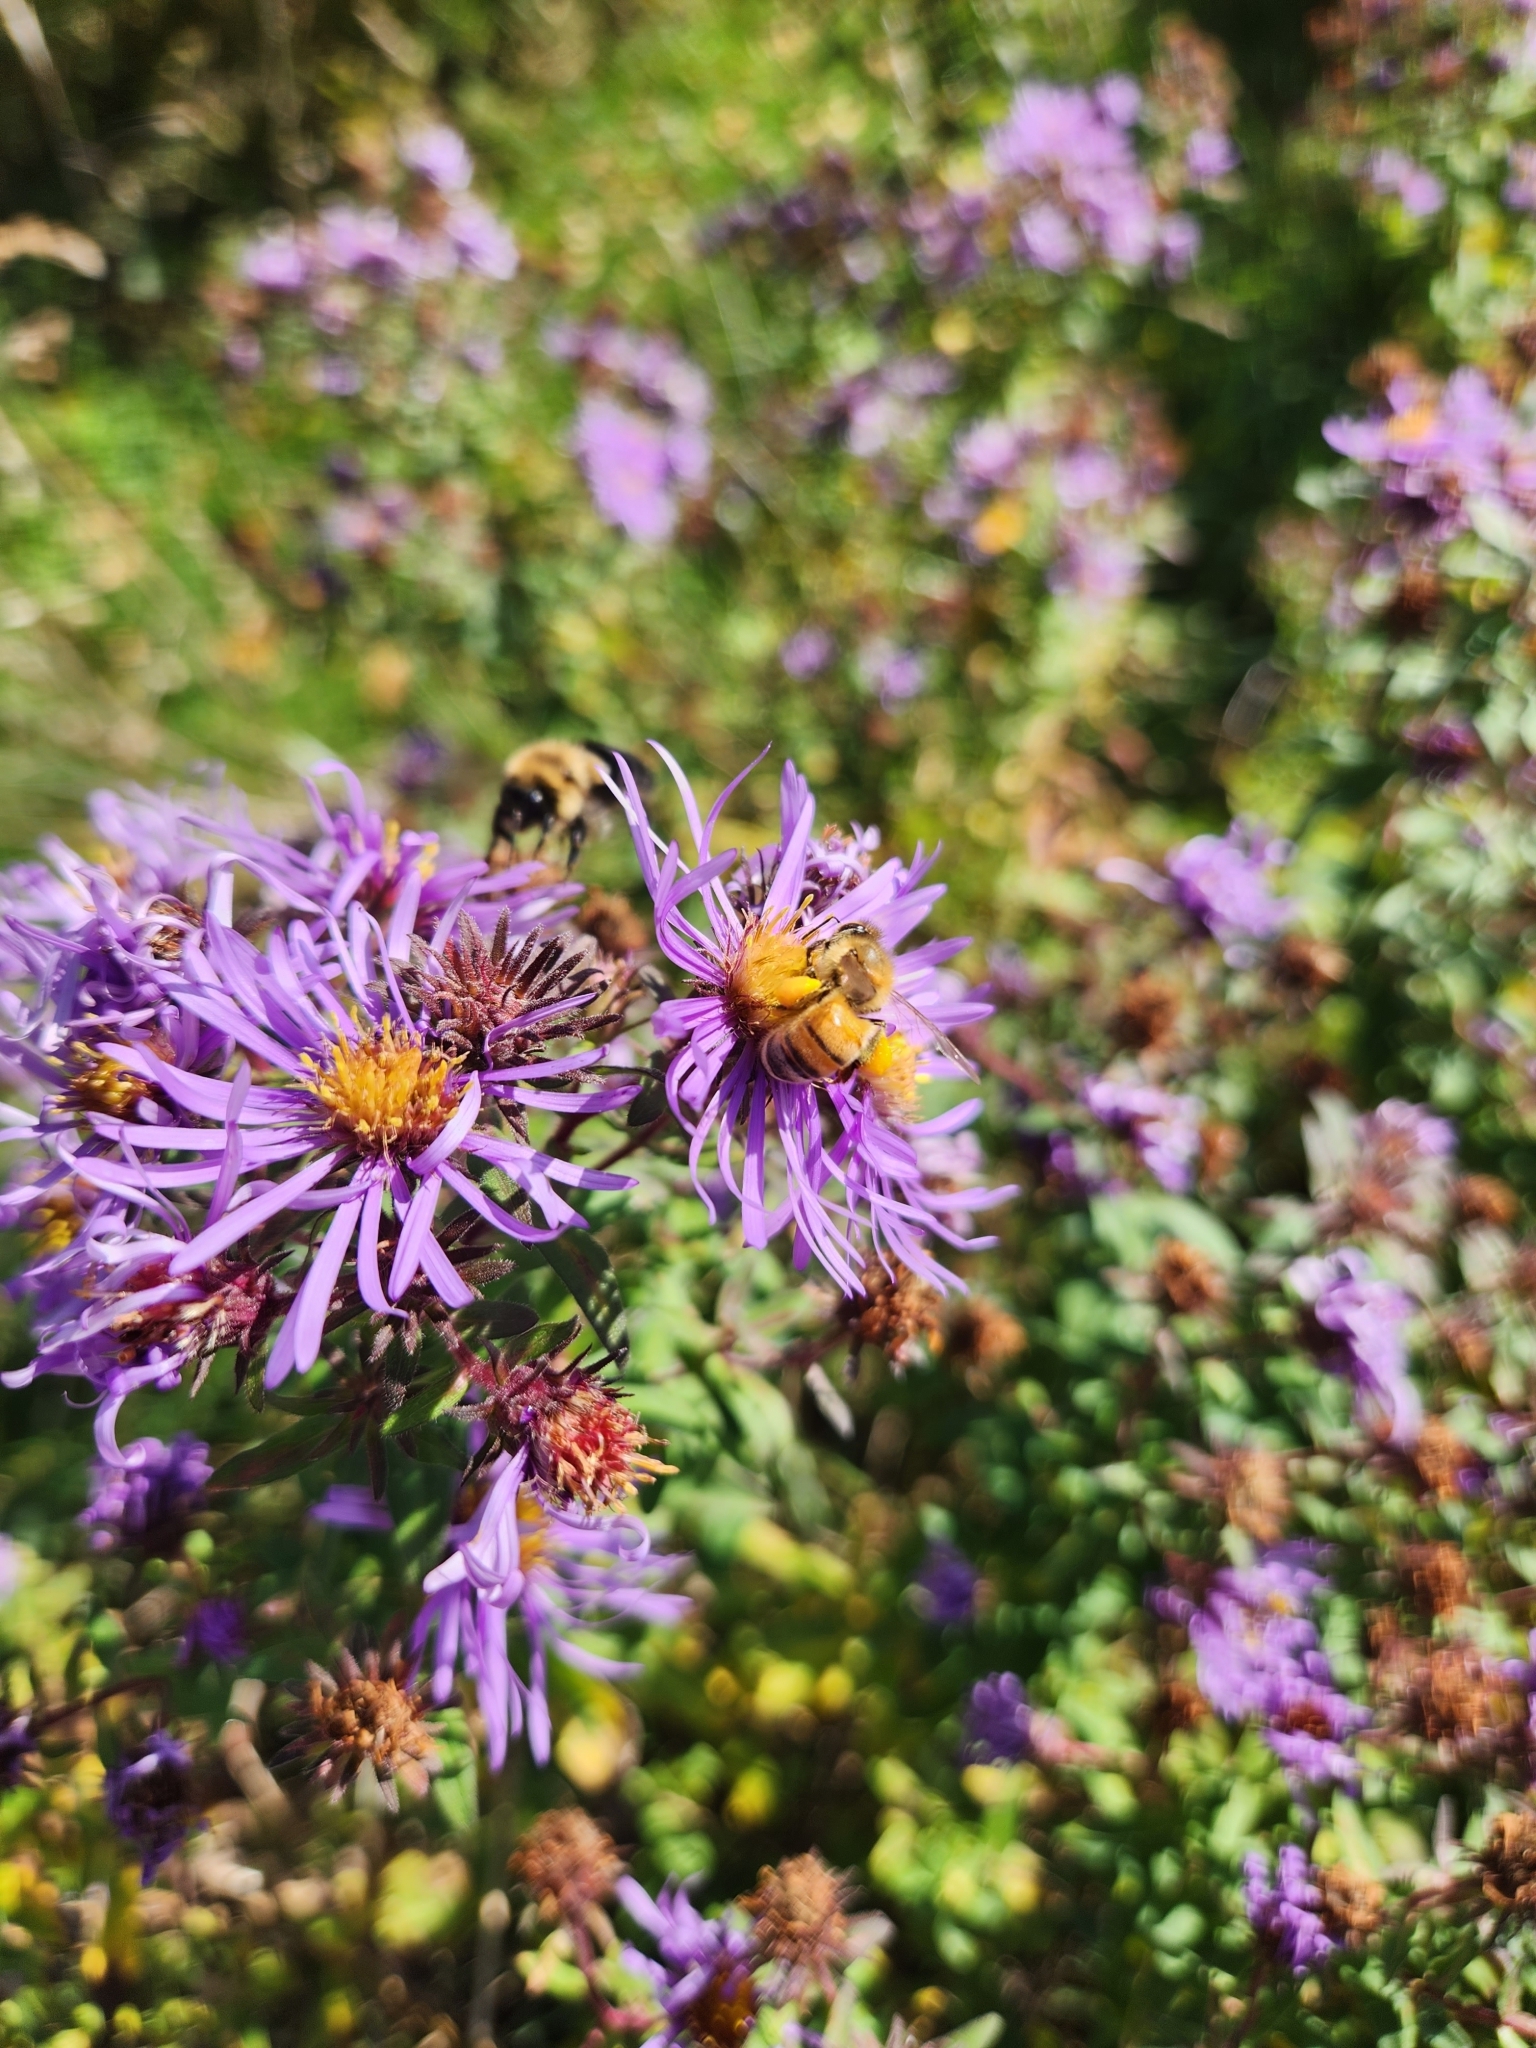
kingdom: Animalia
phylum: Arthropoda
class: Insecta
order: Hymenoptera
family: Apidae
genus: Bombus
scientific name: Bombus impatiens
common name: Common eastern bumble bee
